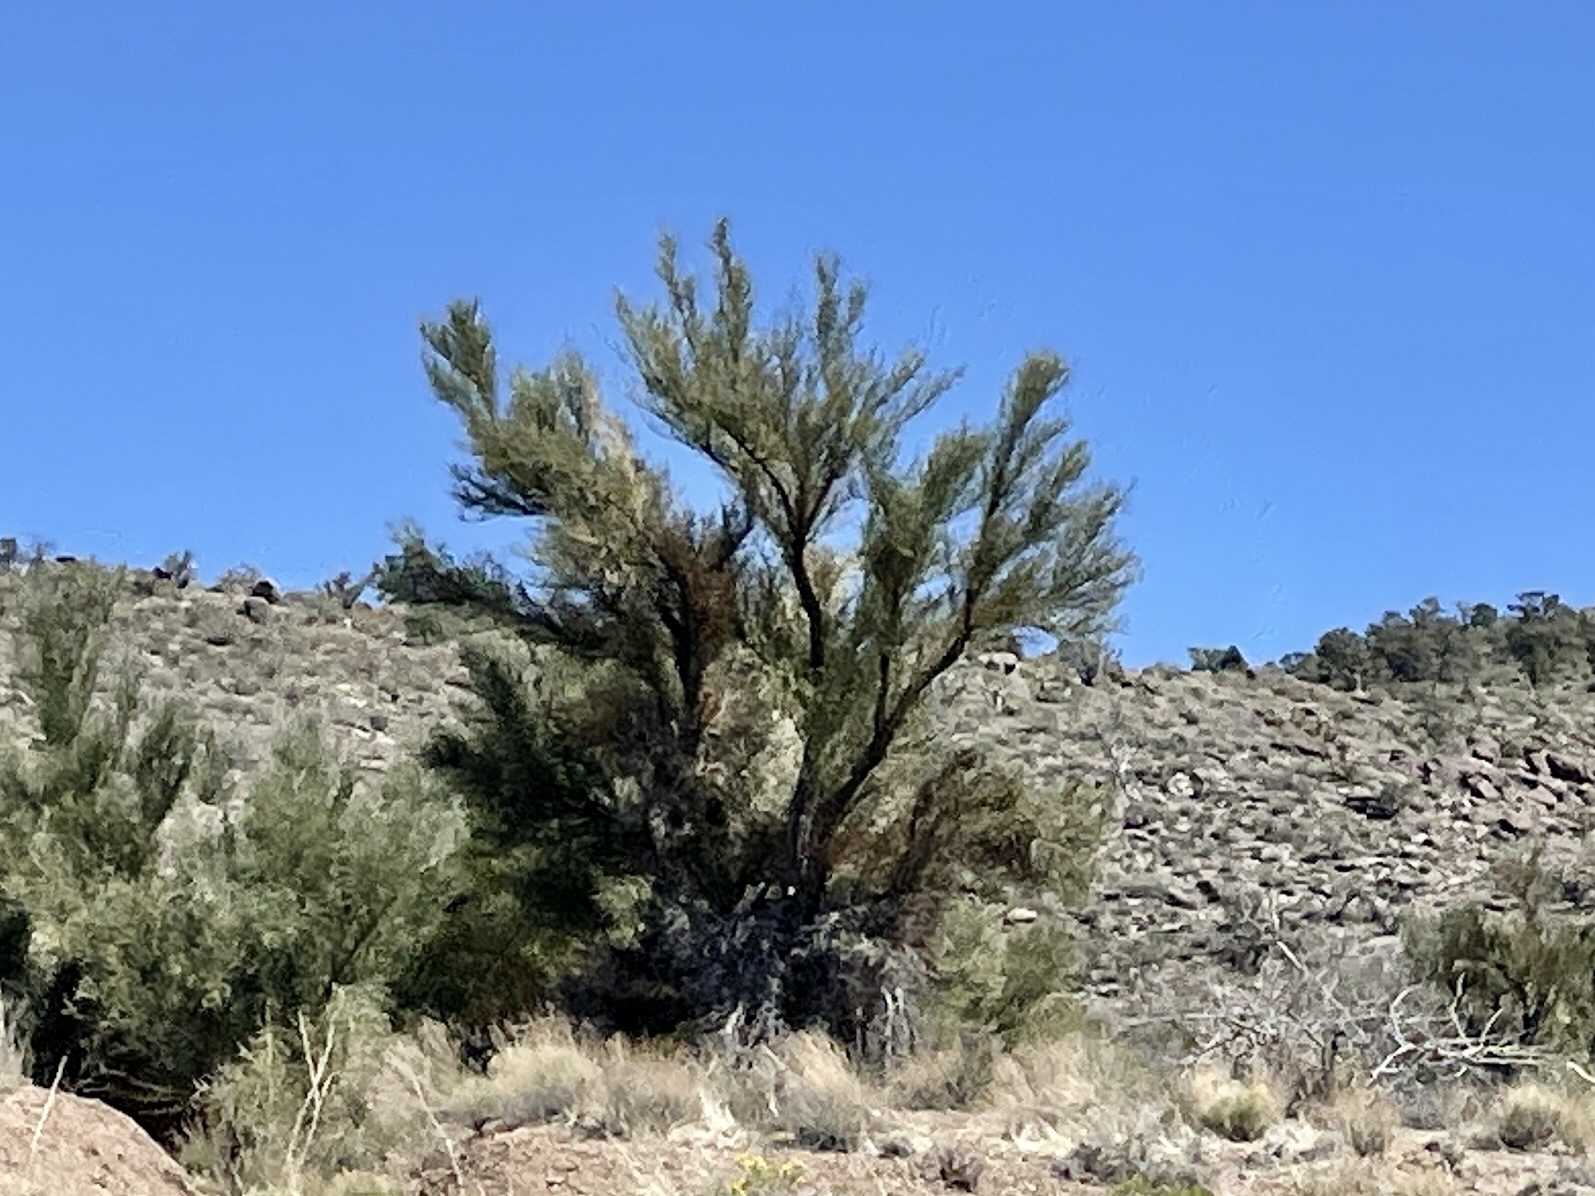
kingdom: Plantae
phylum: Tracheophyta
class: Magnoliopsida
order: Celastrales
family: Celastraceae
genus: Canotia
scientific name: Canotia holacantha
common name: Crucifixion thorns
